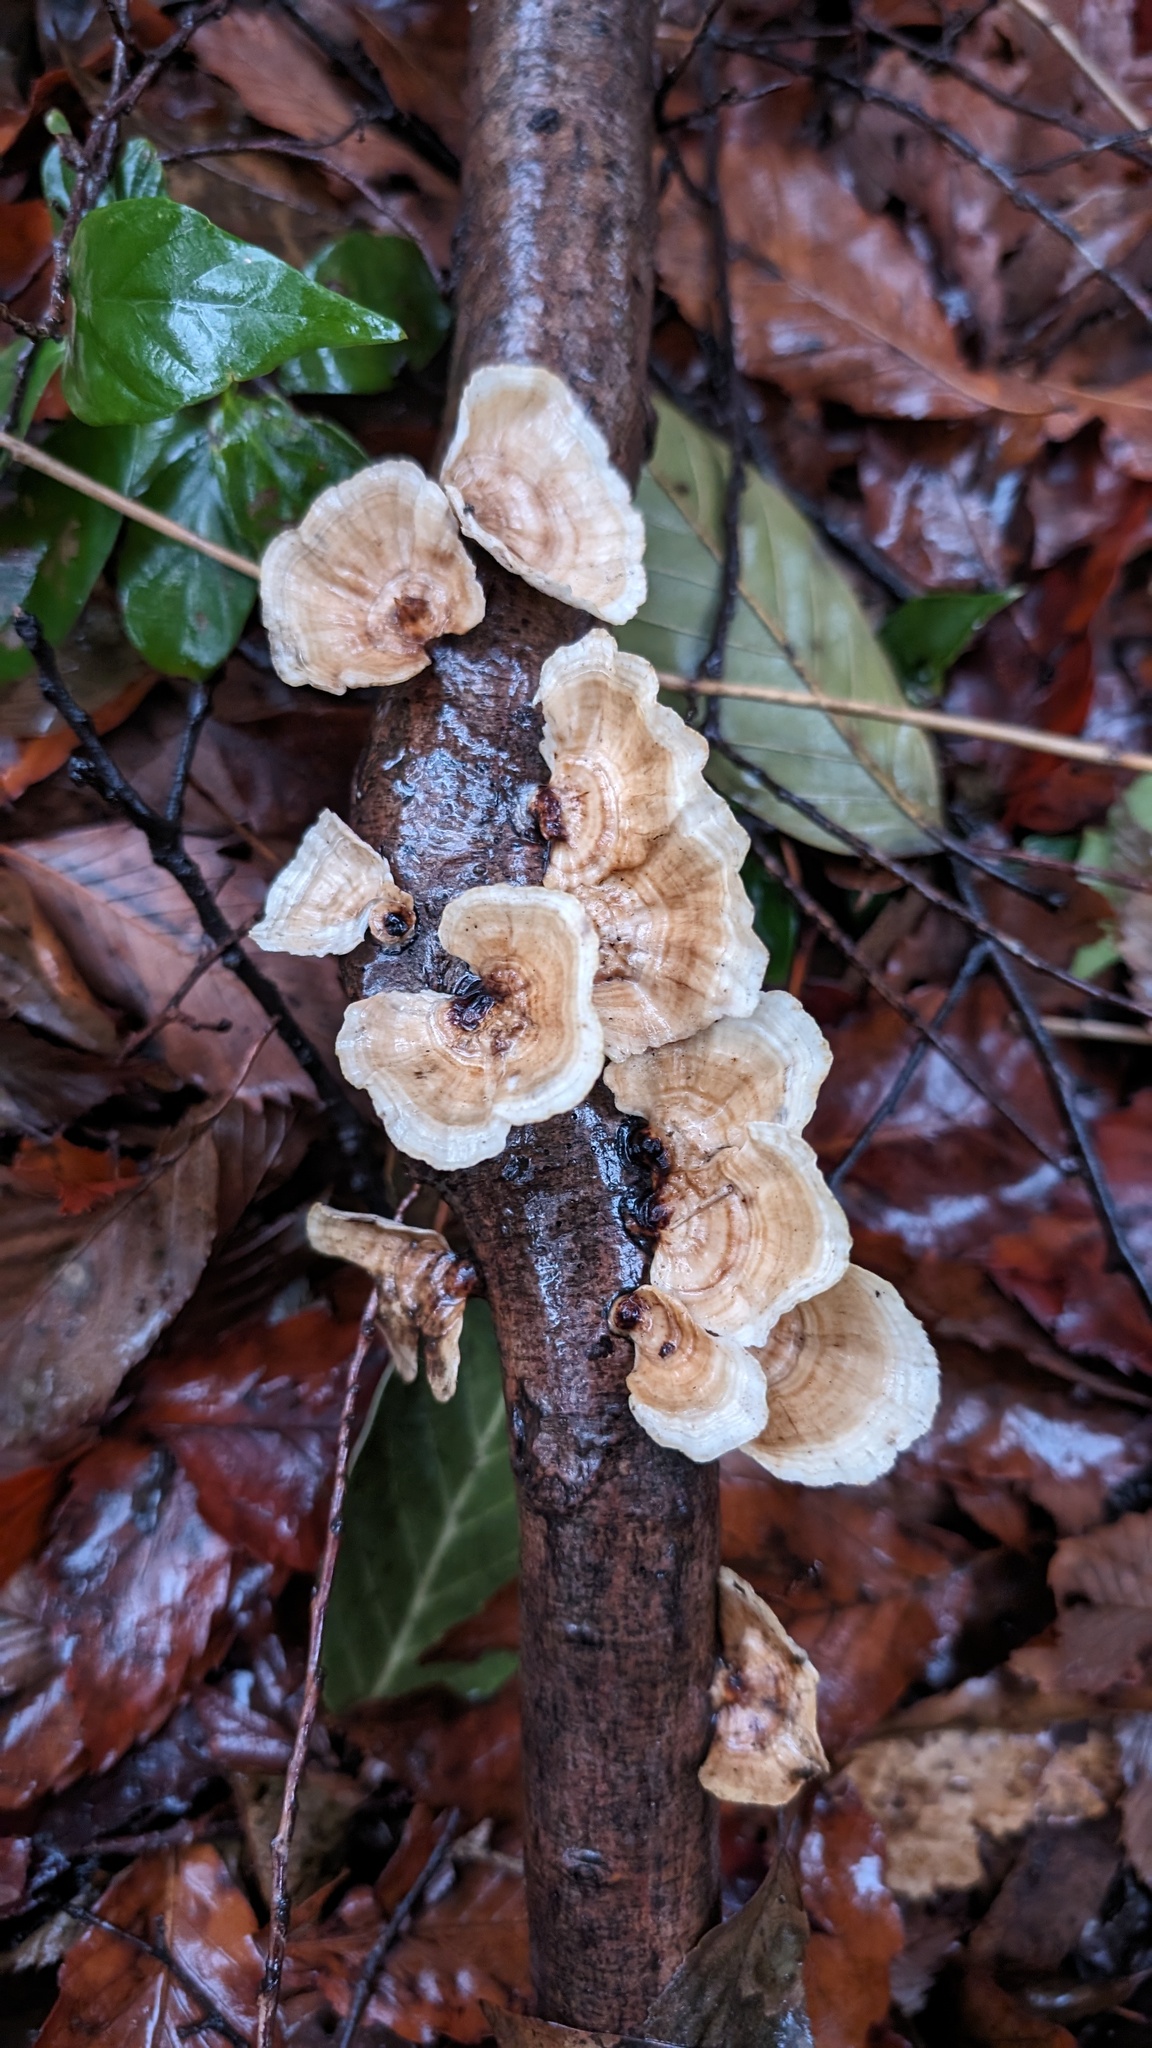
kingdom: Fungi
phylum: Basidiomycota
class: Agaricomycetes
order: Polyporales
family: Polyporaceae
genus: Trametes
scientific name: Trametes vernicipes
